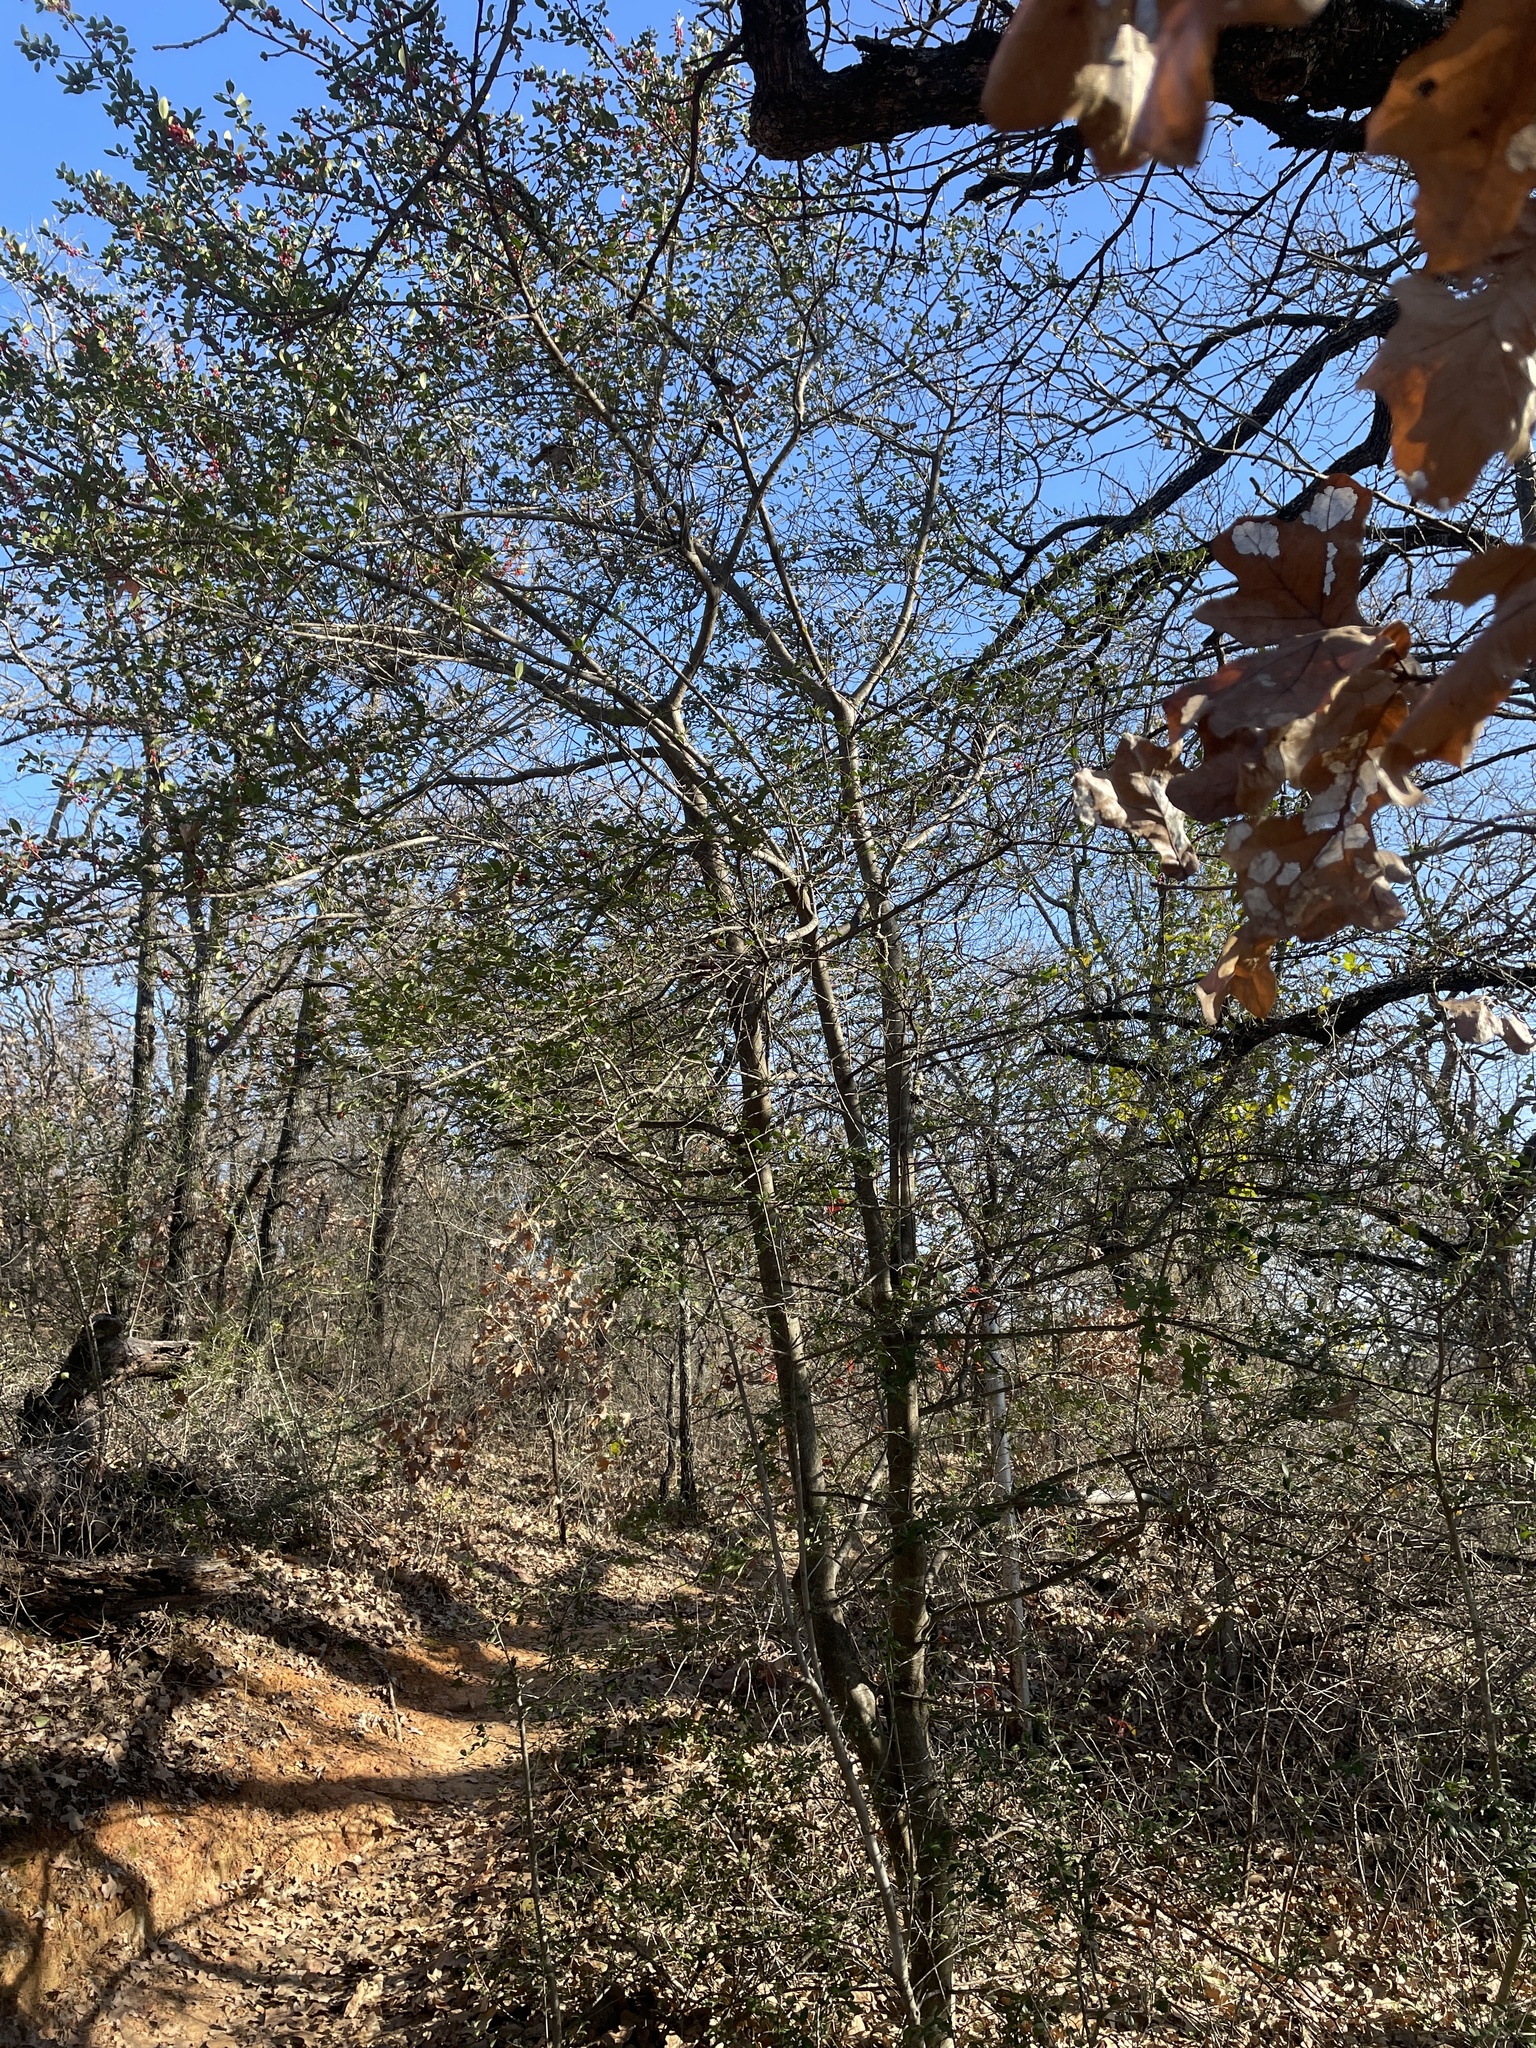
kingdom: Plantae
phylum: Tracheophyta
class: Magnoliopsida
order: Aquifoliales
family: Aquifoliaceae
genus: Ilex
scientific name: Ilex vomitoria
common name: Yaupon holly
